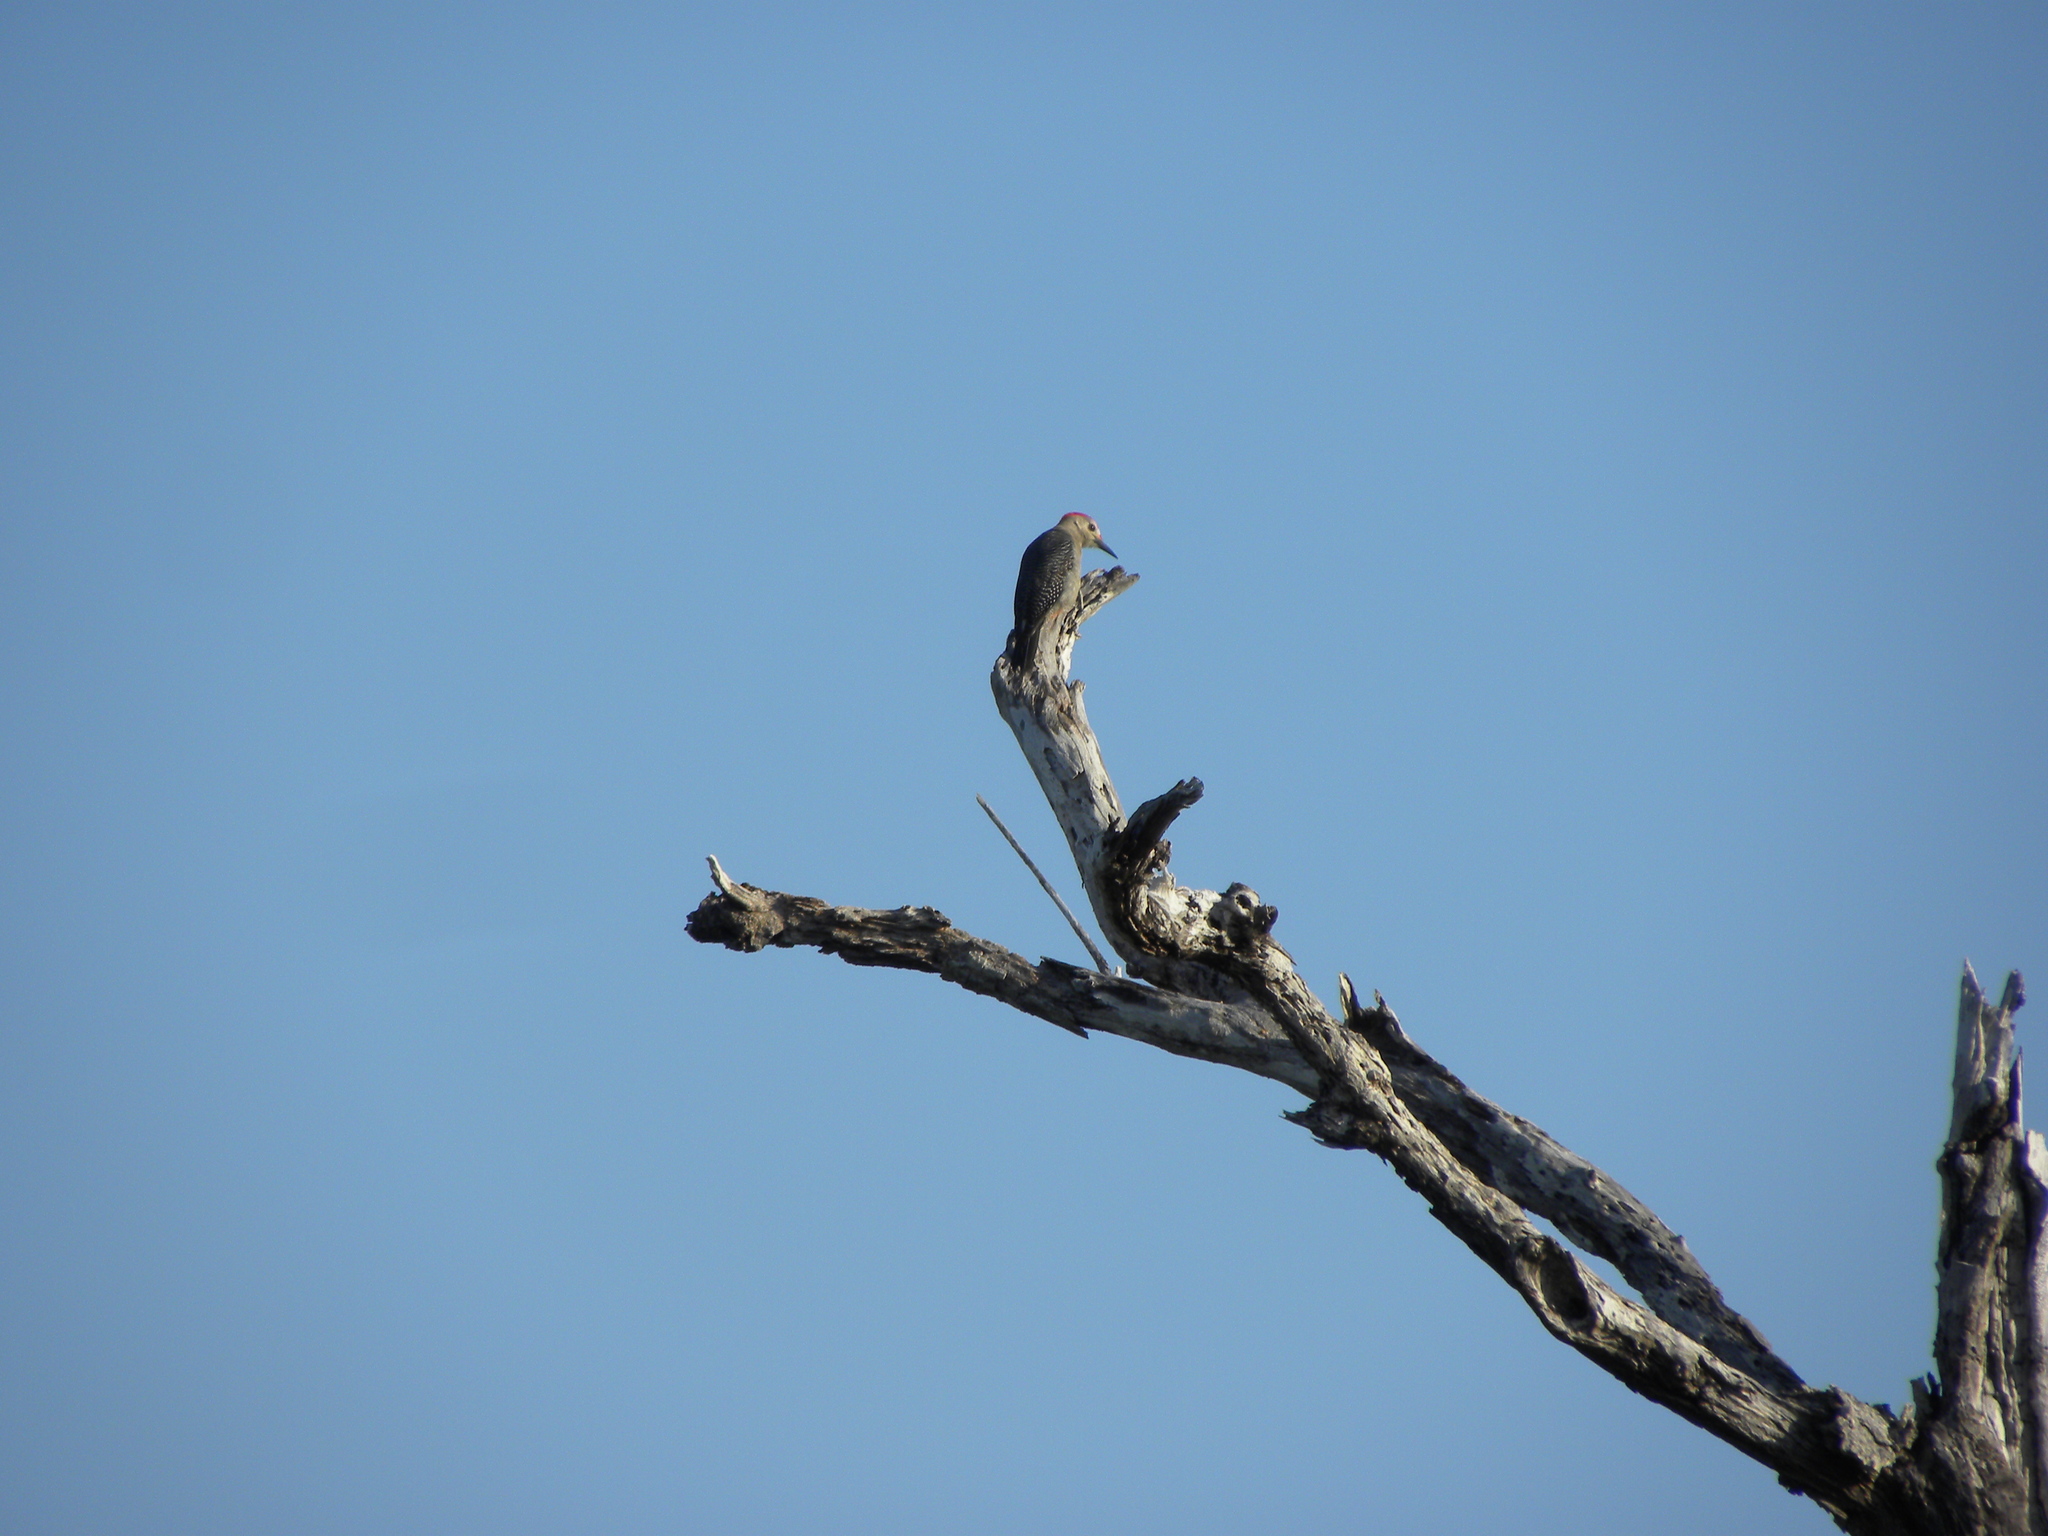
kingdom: Animalia
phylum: Chordata
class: Aves
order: Piciformes
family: Picidae
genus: Melanerpes
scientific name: Melanerpes santacruzi
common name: Velasquez's woodpecker
